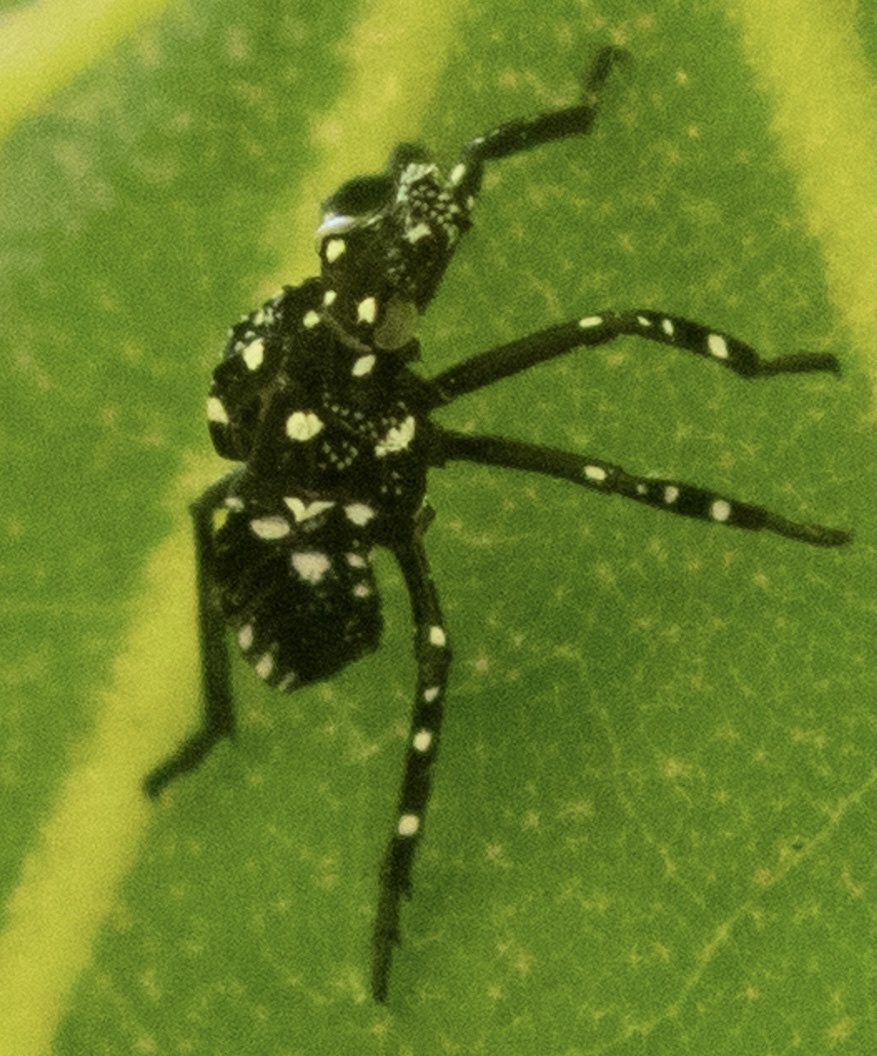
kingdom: Animalia
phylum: Arthropoda
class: Insecta
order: Hemiptera
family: Fulgoridae
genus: Lycorma
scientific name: Lycorma delicatula
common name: Spotted lanternfly
